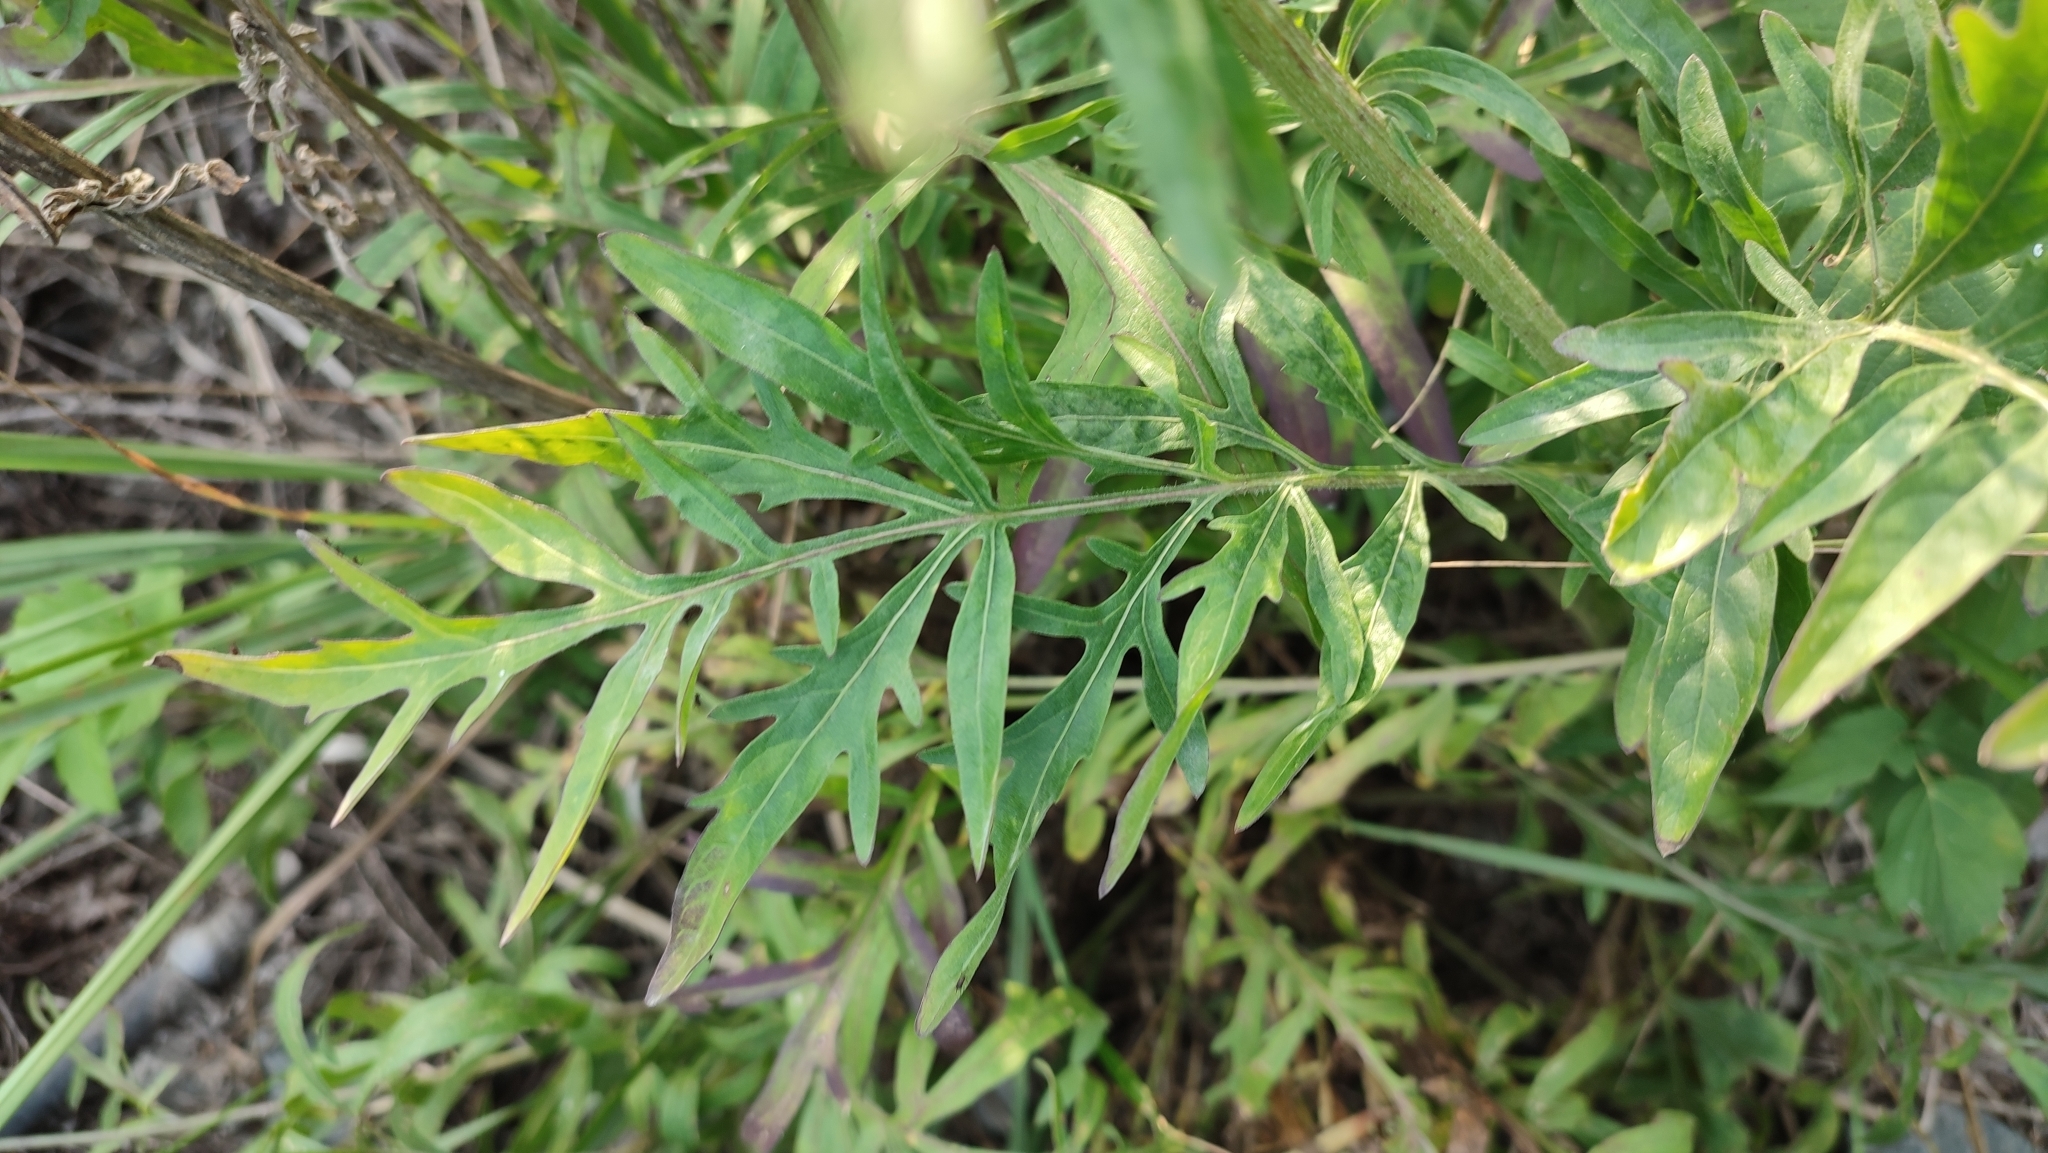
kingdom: Plantae
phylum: Tracheophyta
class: Magnoliopsida
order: Asterales
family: Asteraceae
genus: Centaurea
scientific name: Centaurea scabiosa
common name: Greater knapweed
